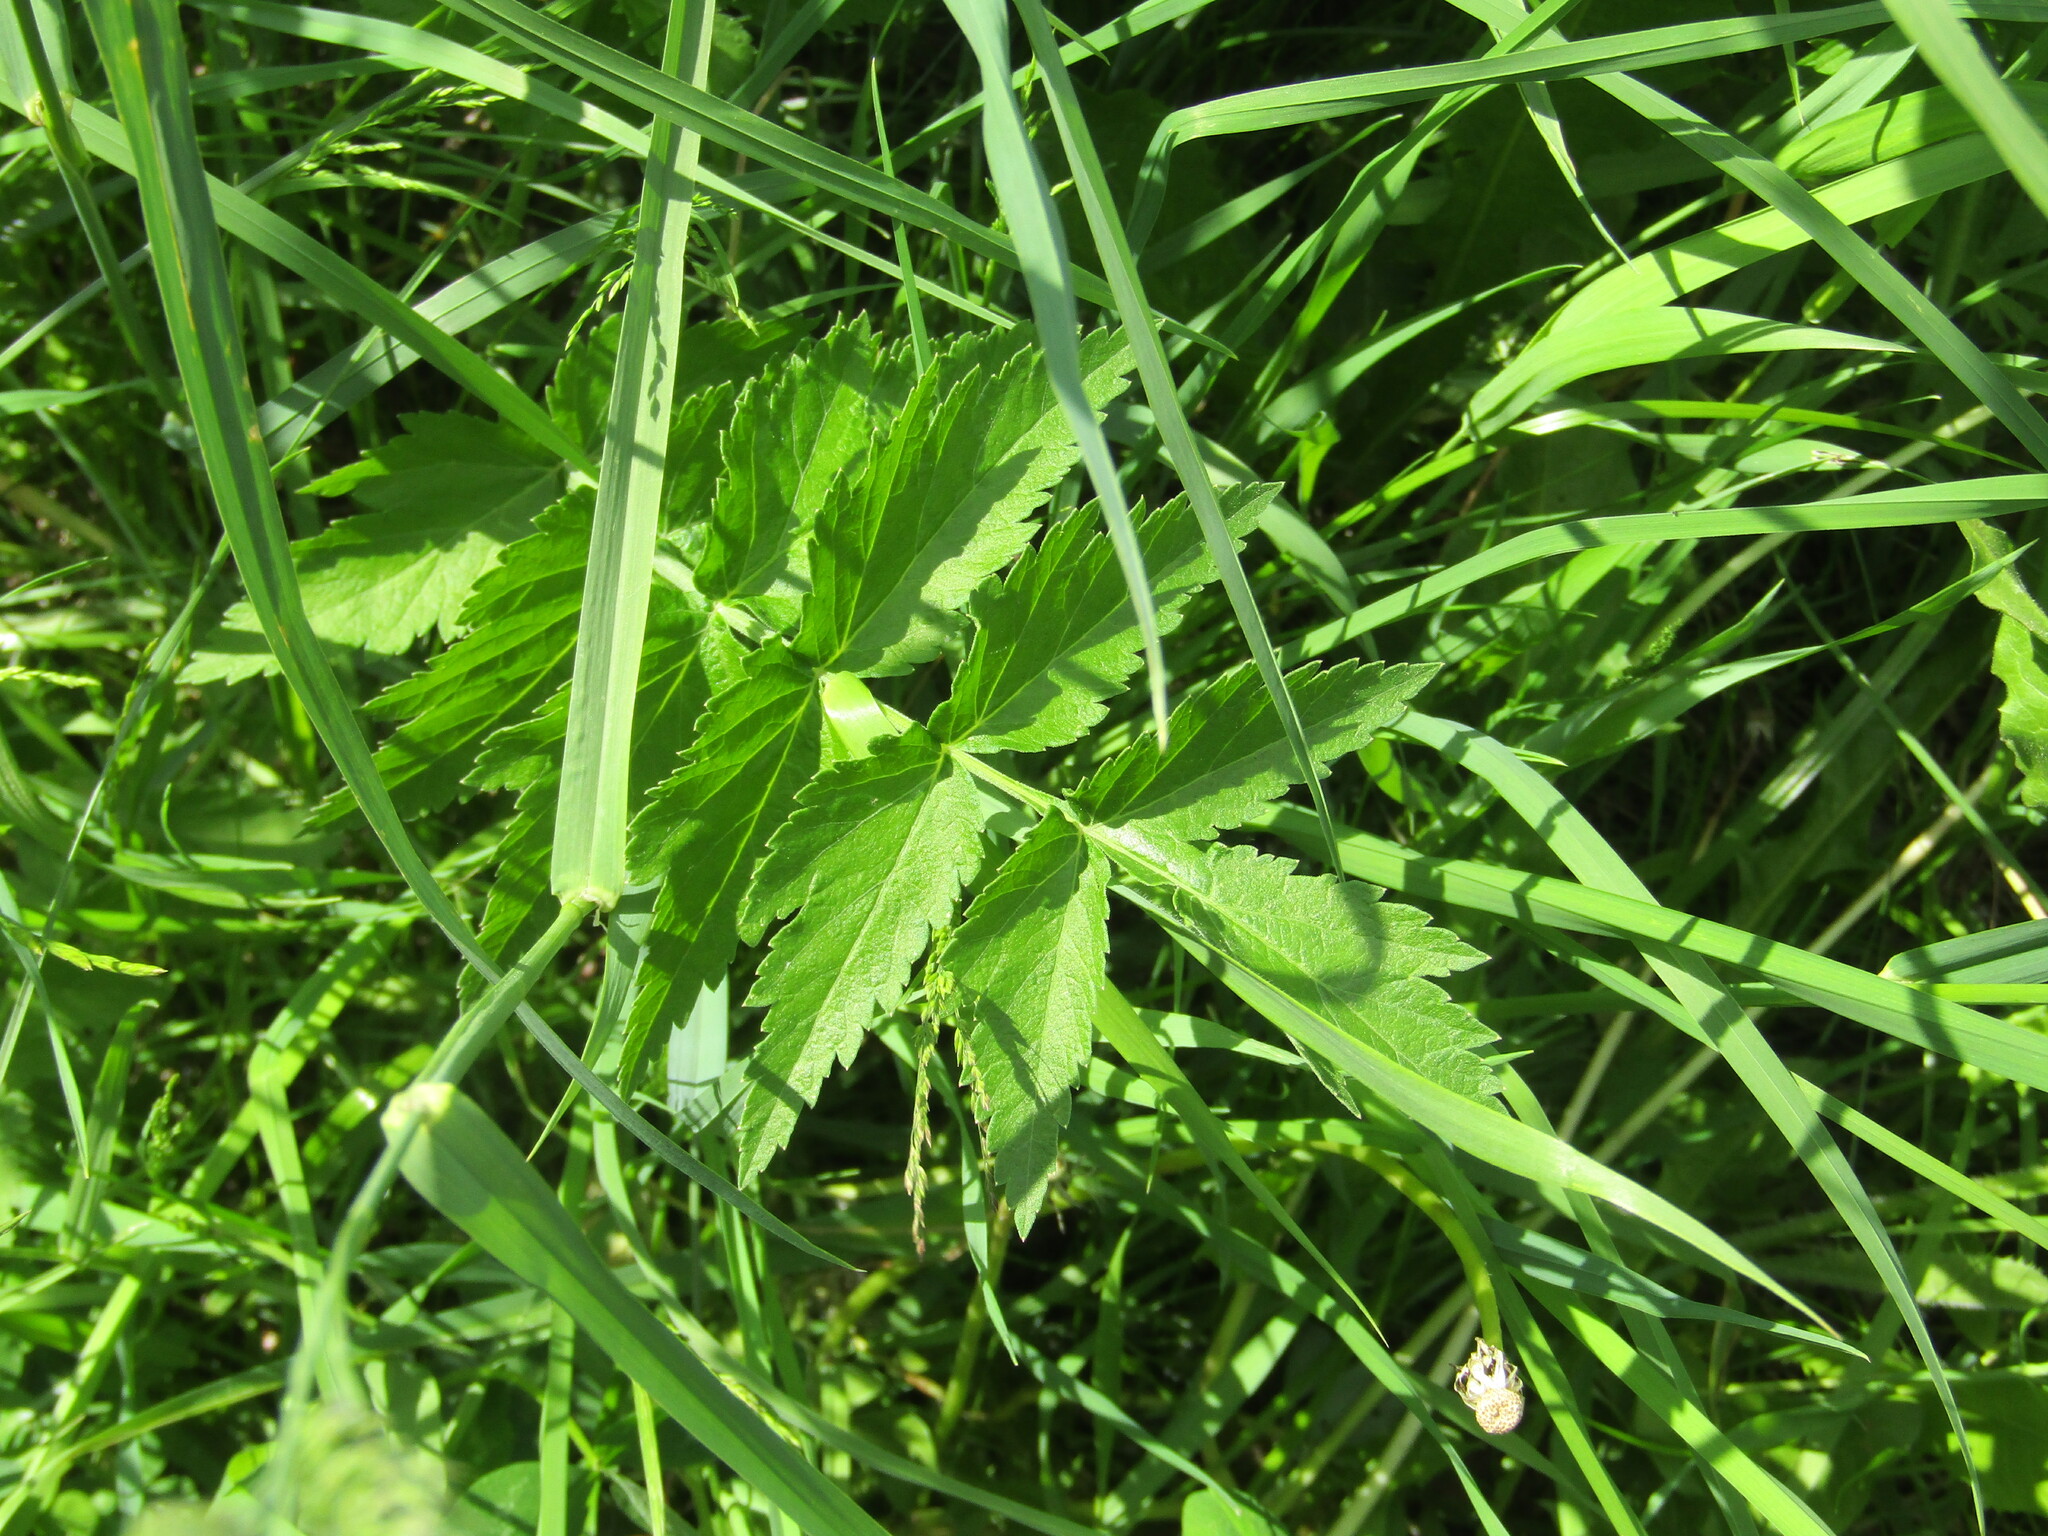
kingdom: Plantae
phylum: Tracheophyta
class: Magnoliopsida
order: Apiales
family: Apiaceae
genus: Pastinaca
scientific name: Pastinaca sativa
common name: Wild parsnip
